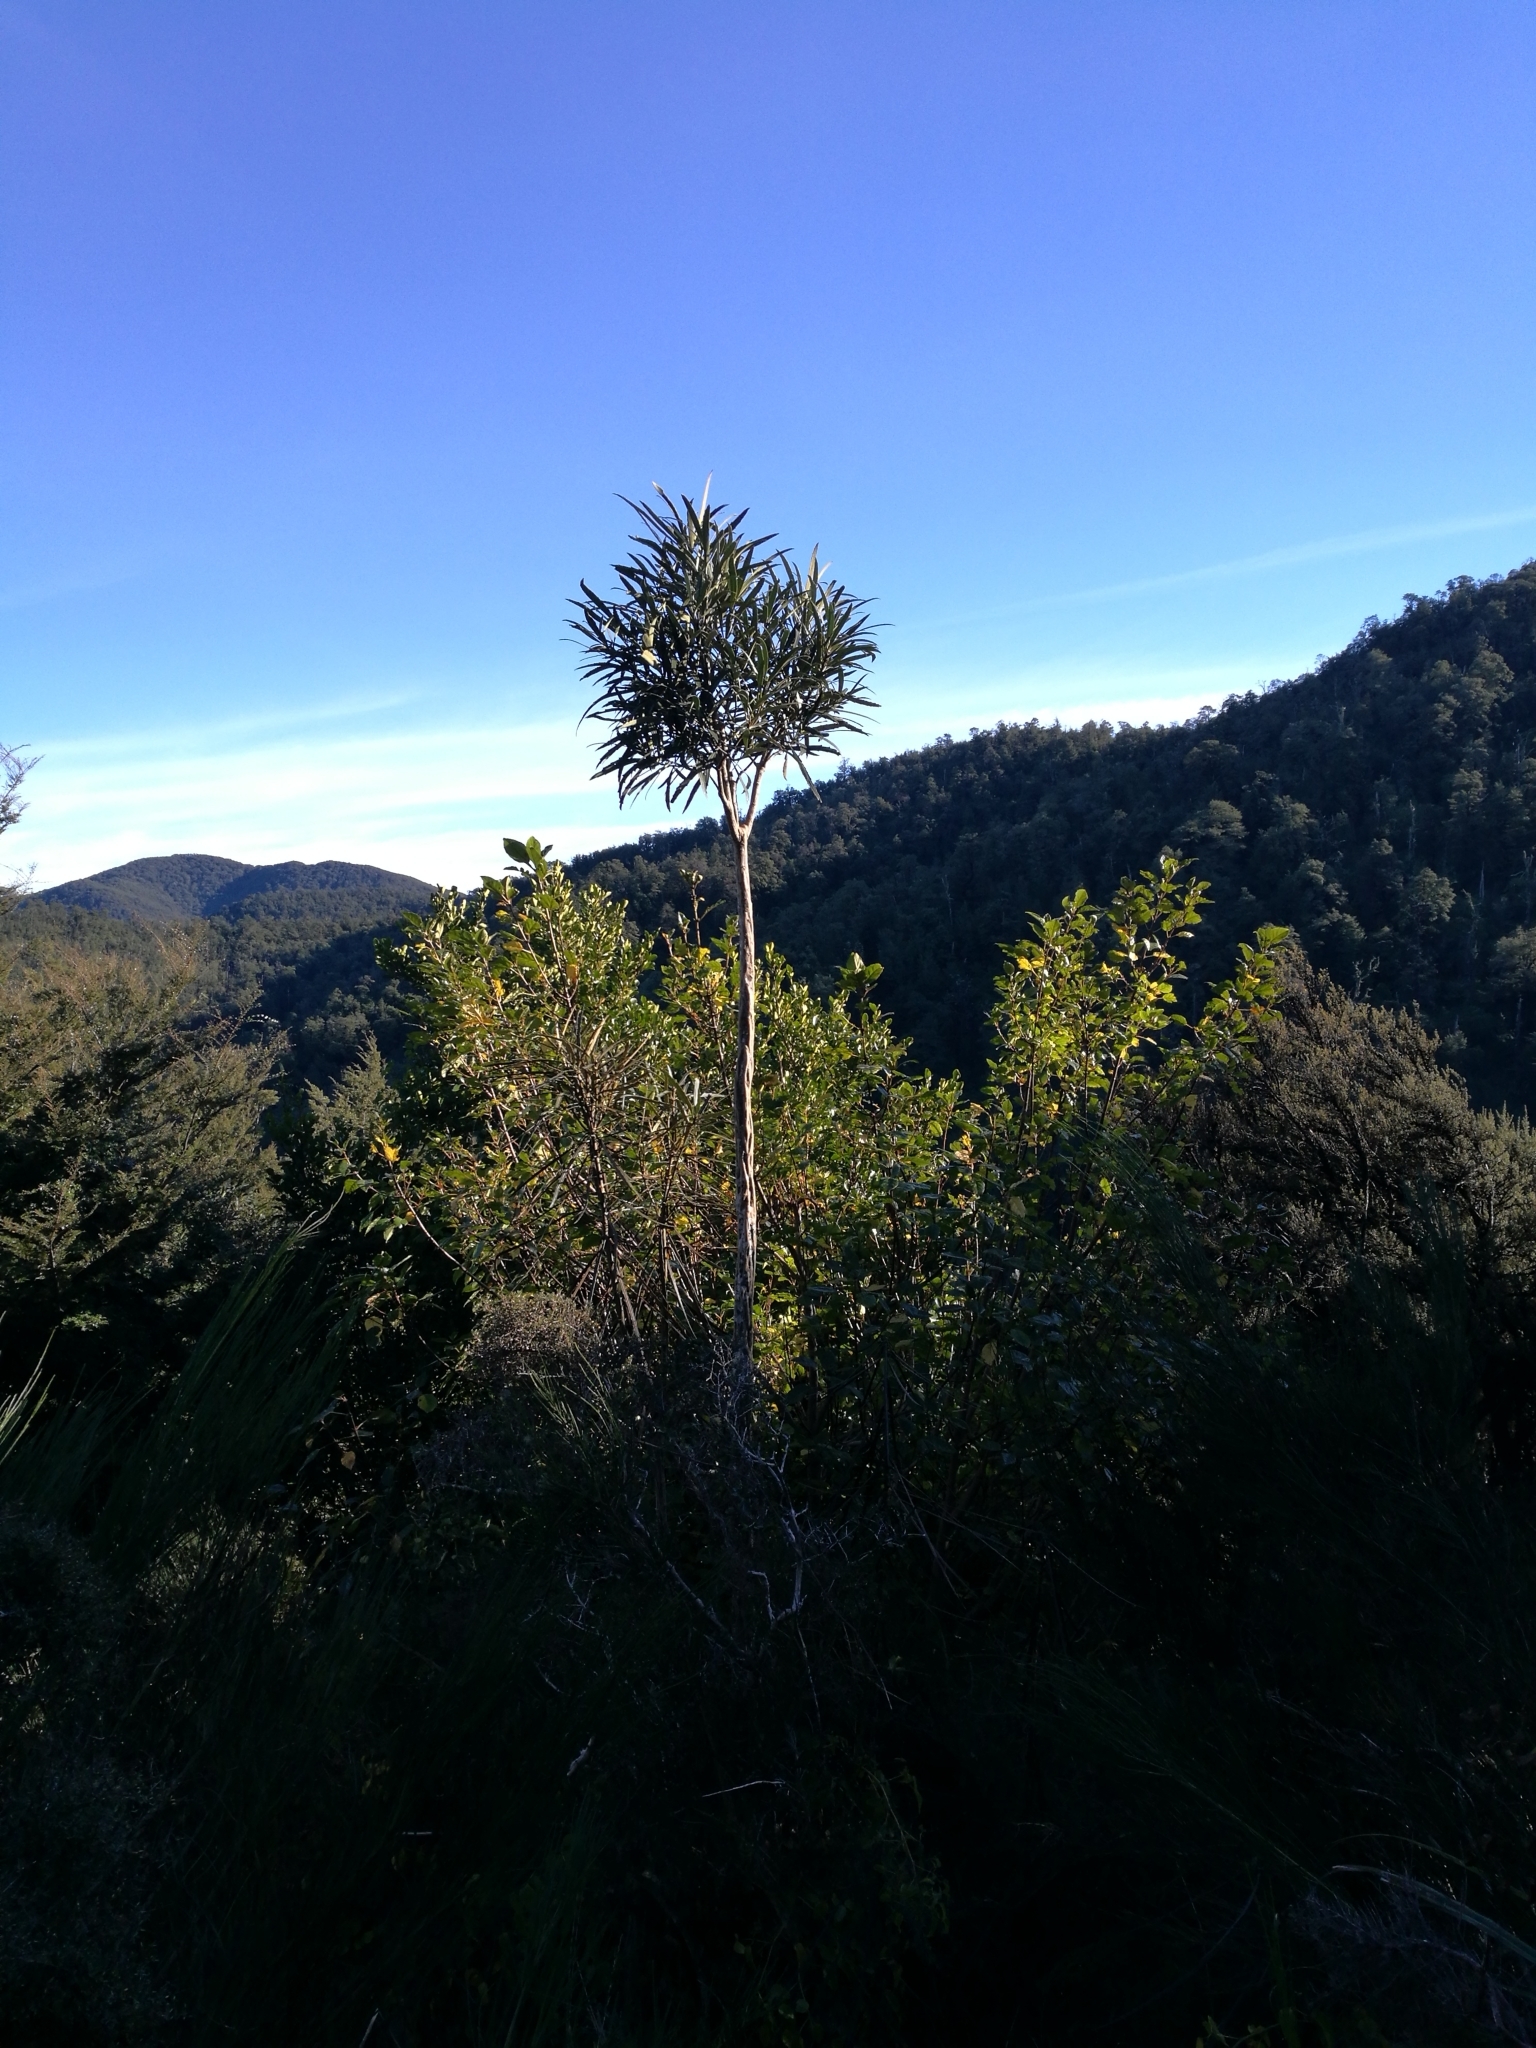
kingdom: Plantae
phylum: Tracheophyta
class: Magnoliopsida
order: Apiales
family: Araliaceae
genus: Pseudopanax
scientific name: Pseudopanax crassifolius
